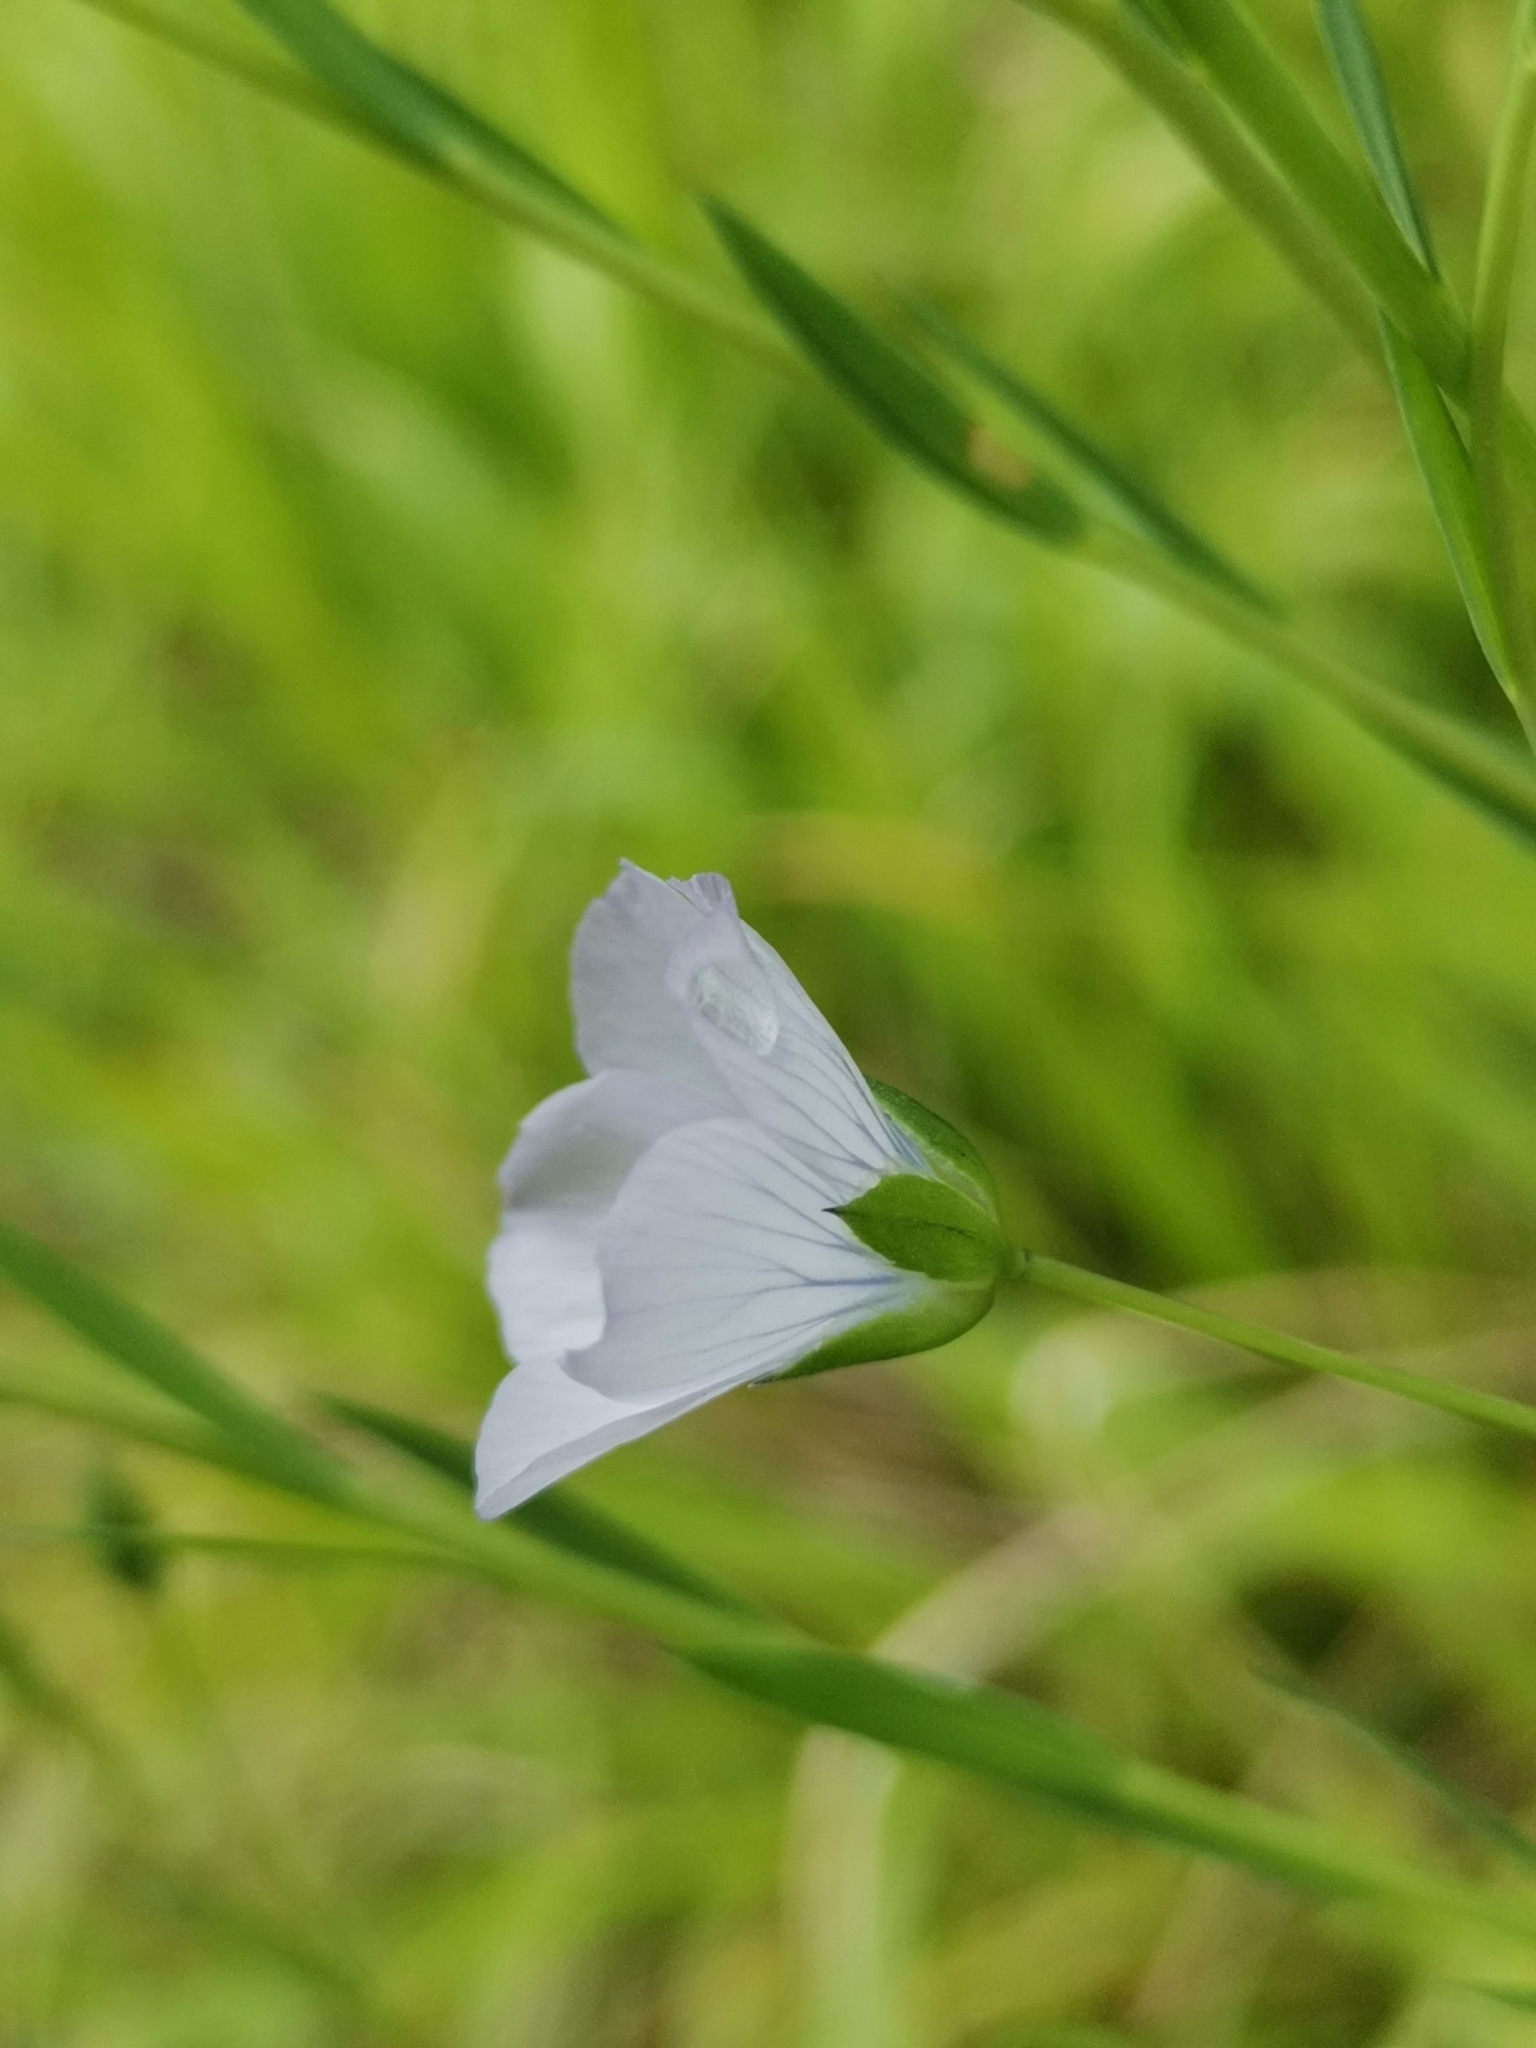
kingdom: Plantae
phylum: Tracheophyta
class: Magnoliopsida
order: Malpighiales
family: Linaceae
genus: Linum
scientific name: Linum bienne
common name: Pale flax
